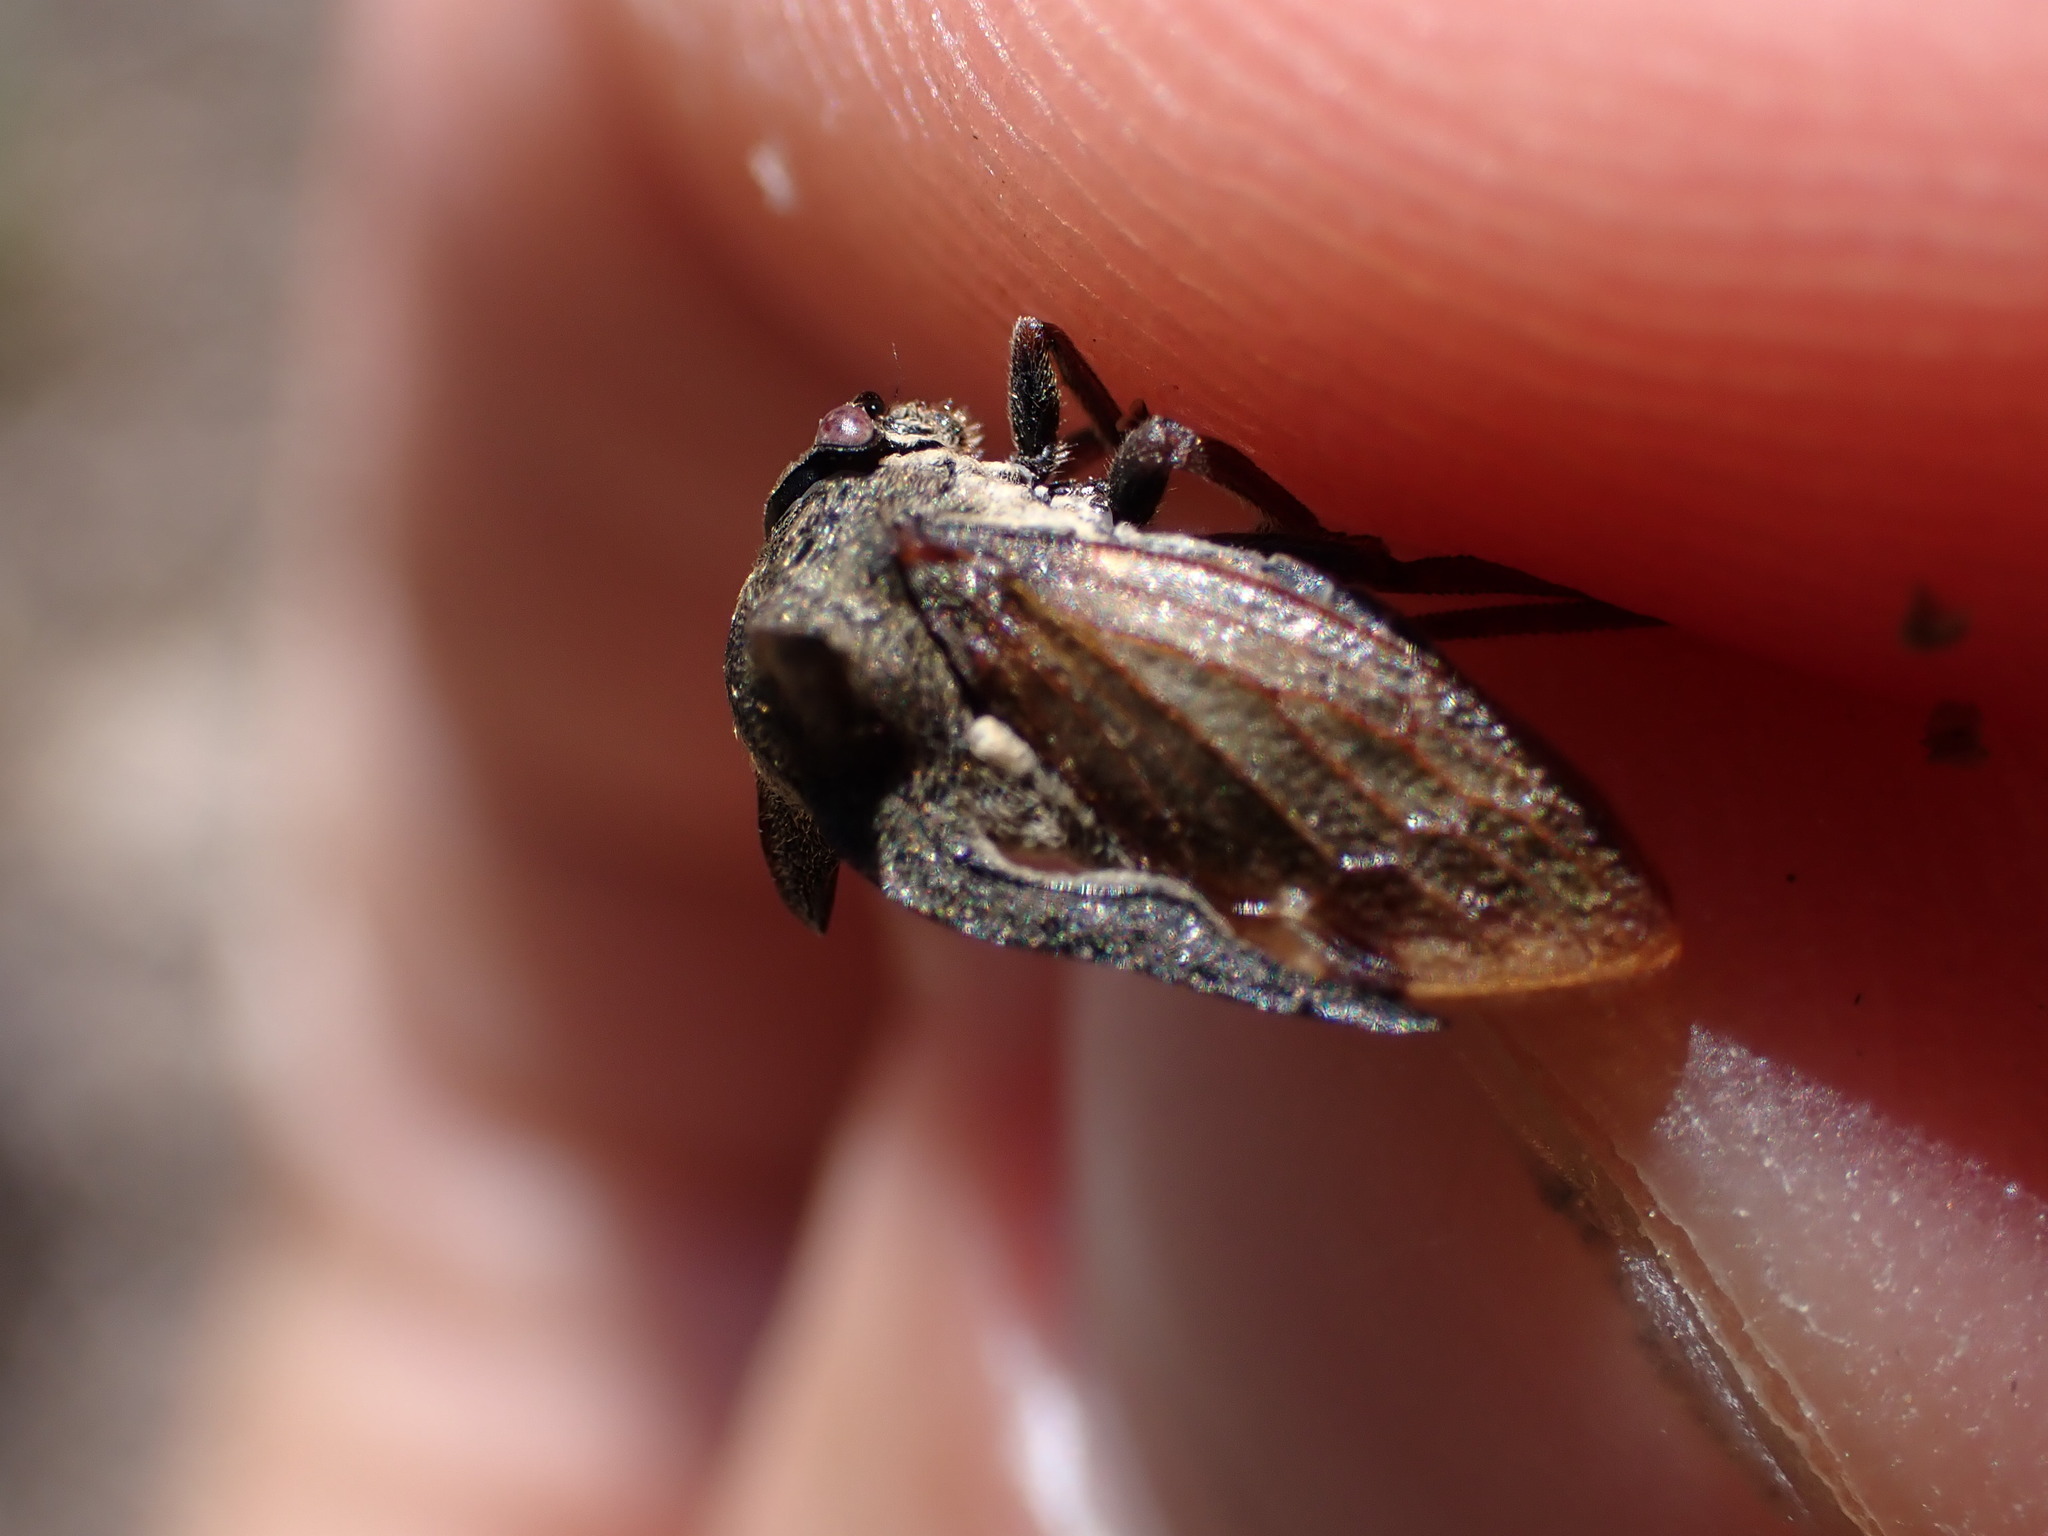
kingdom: Animalia
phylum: Arthropoda
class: Insecta
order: Hemiptera
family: Membracidae
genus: Centrotus
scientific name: Centrotus cornuta
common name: Treehopper
